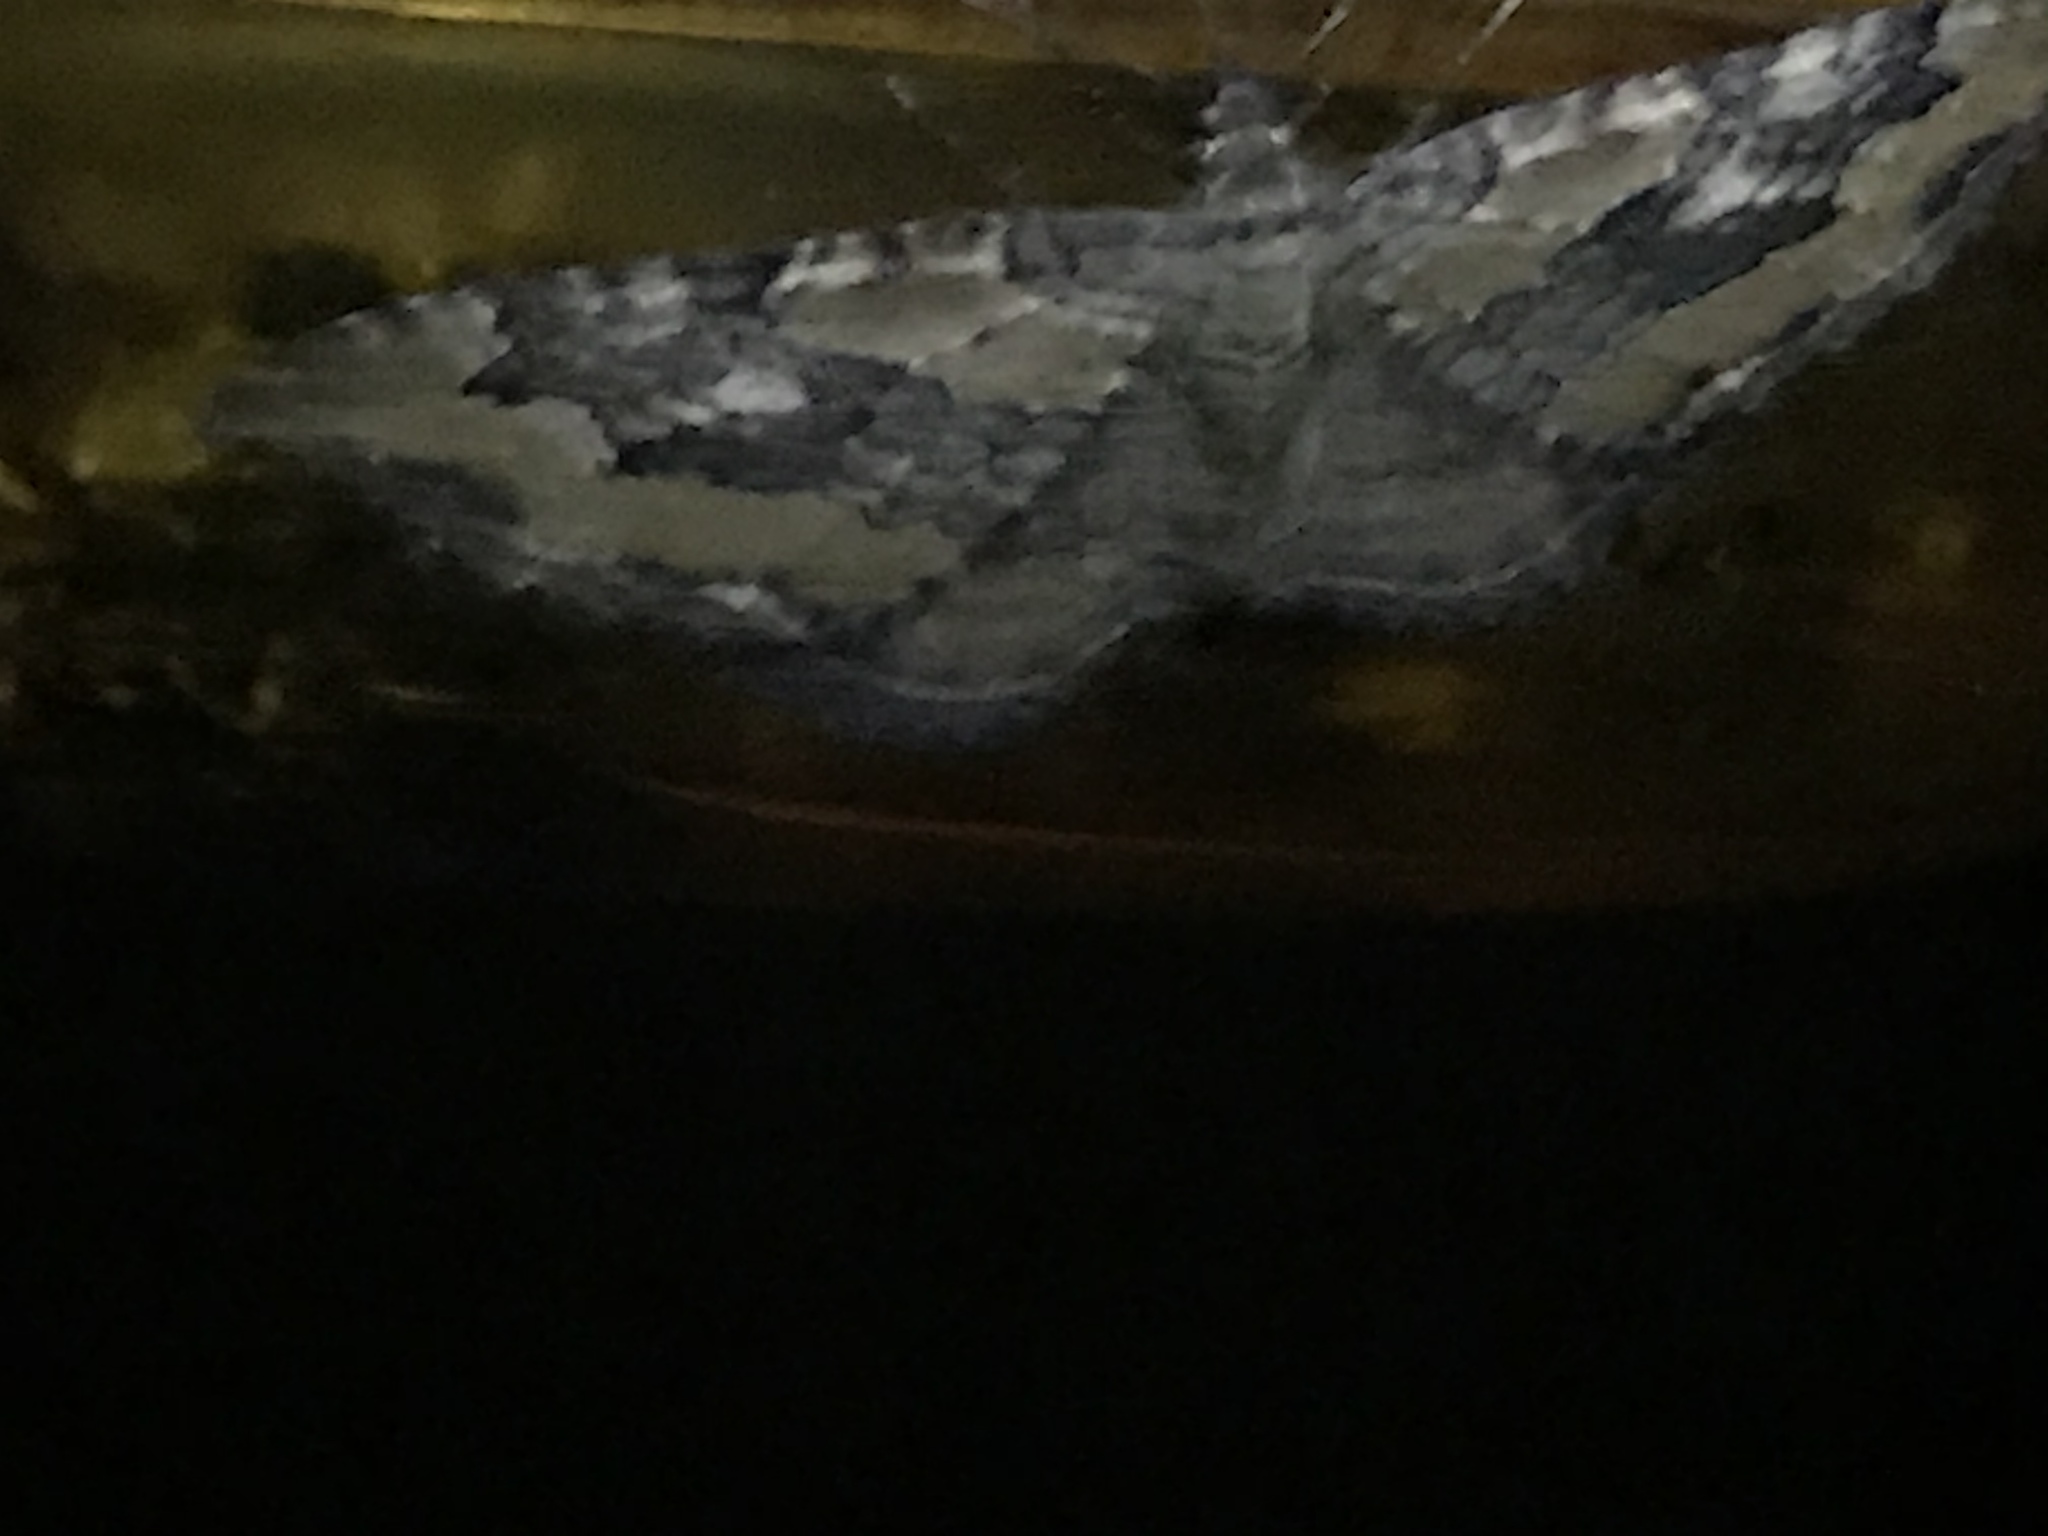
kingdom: Animalia
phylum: Arthropoda
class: Insecta
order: Lepidoptera
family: Geometridae
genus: Rheumaptera
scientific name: Rheumaptera
